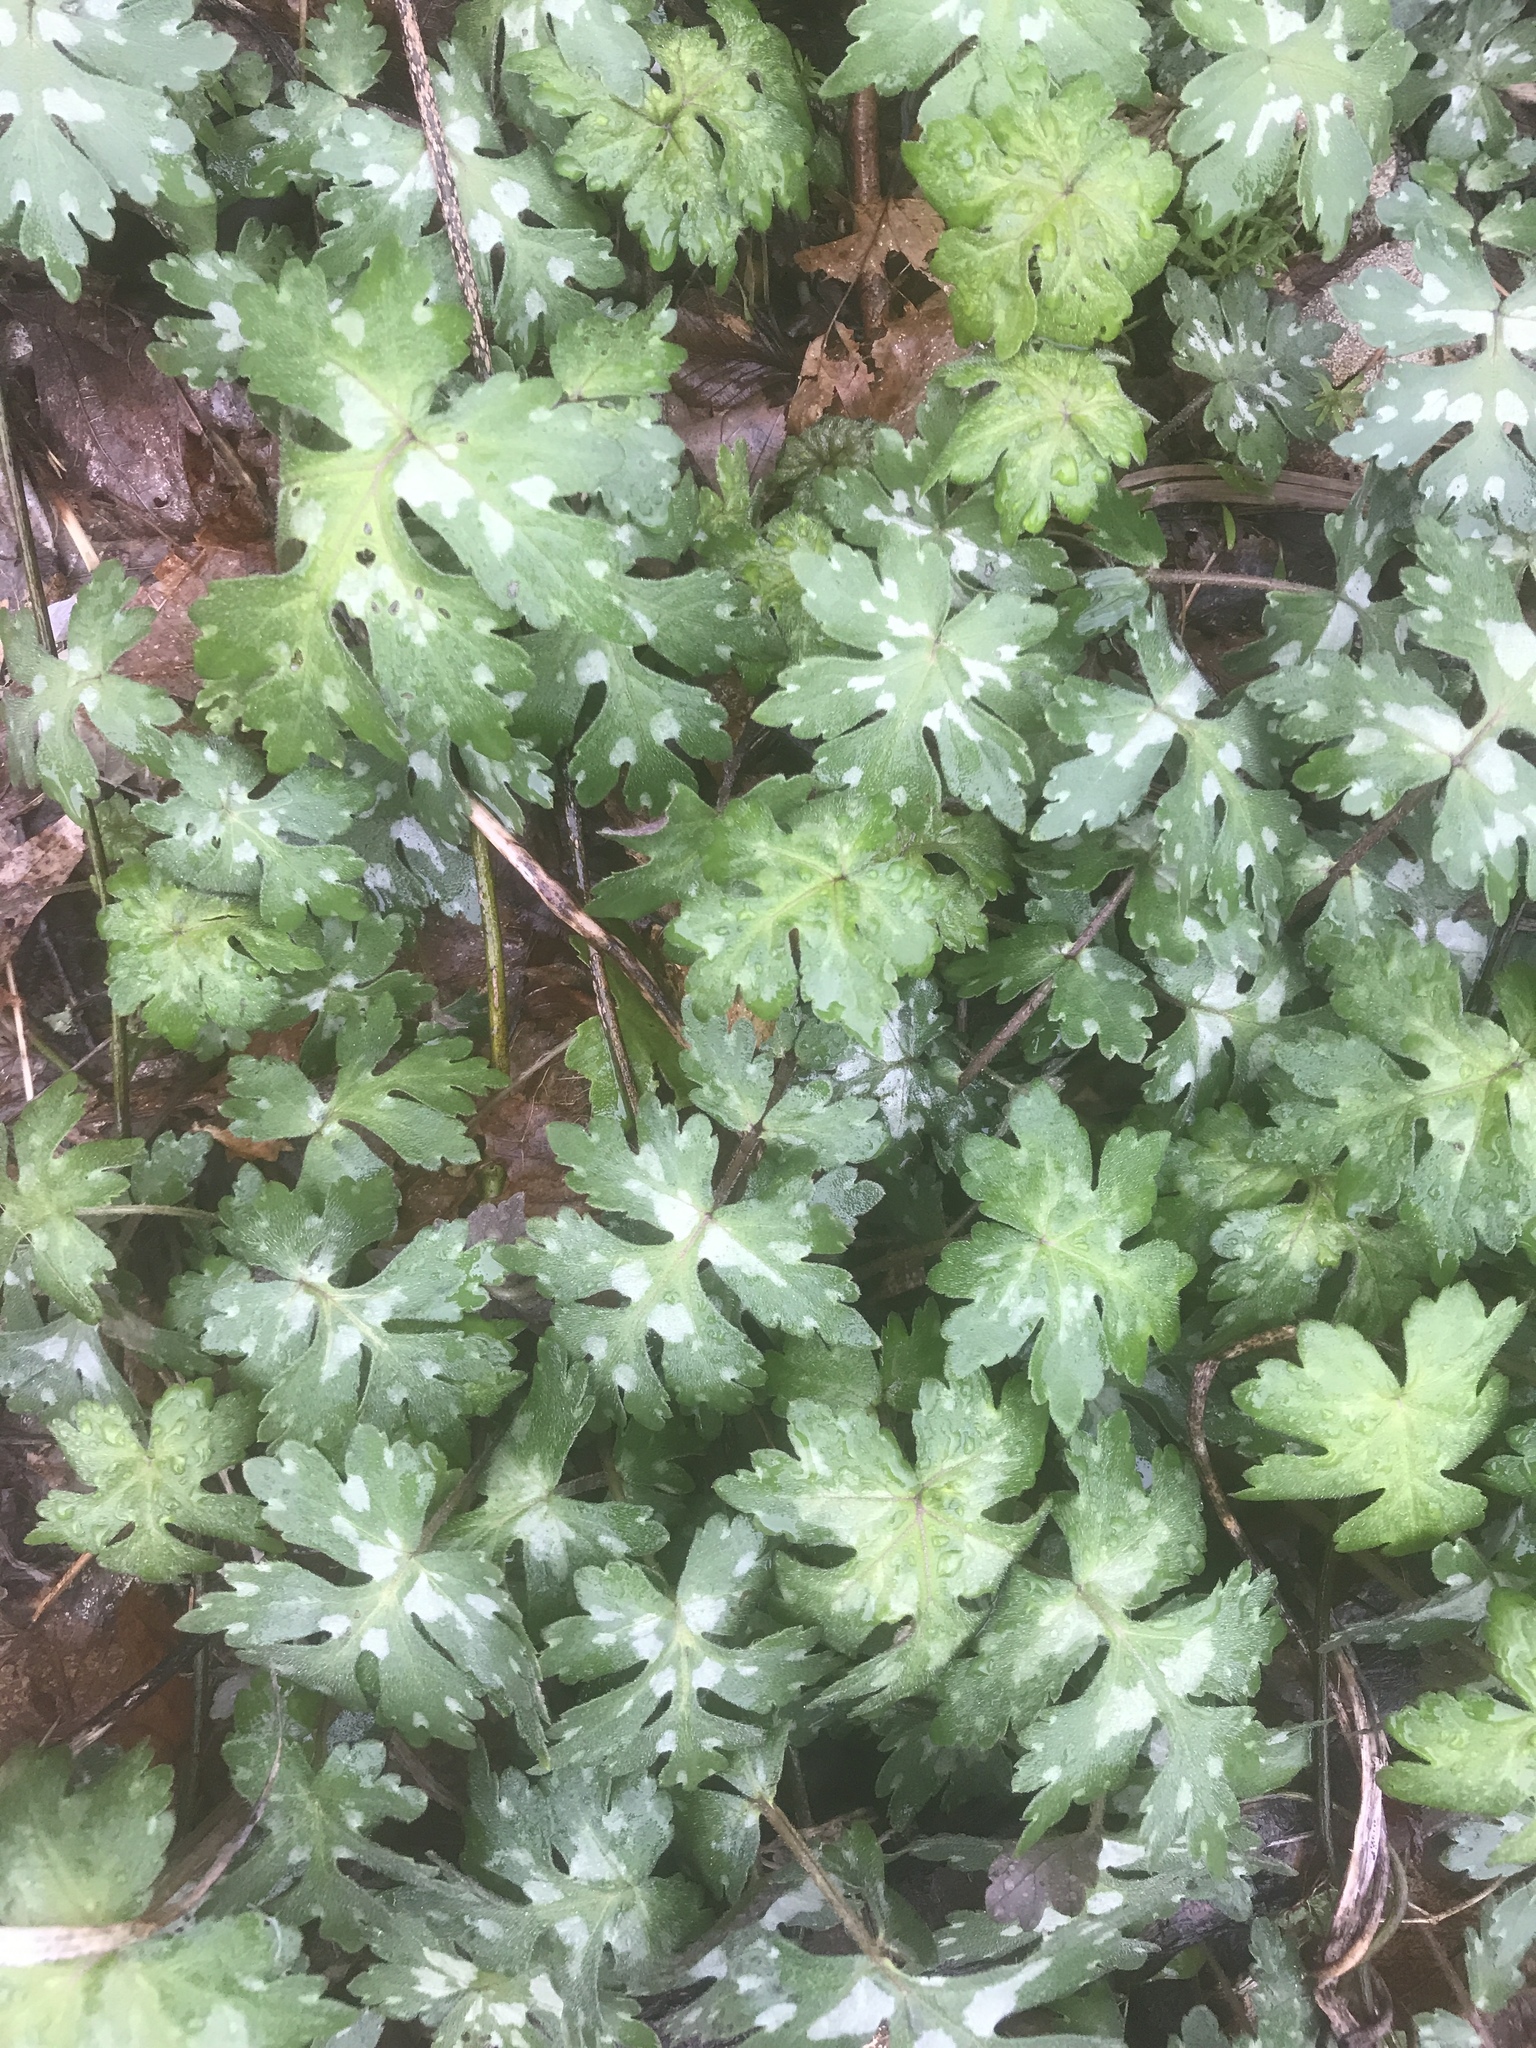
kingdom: Plantae
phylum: Tracheophyta
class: Magnoliopsida
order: Boraginales
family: Hydrophyllaceae
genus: Hydrophyllum
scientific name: Hydrophyllum canadense
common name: Canada waterleaf
